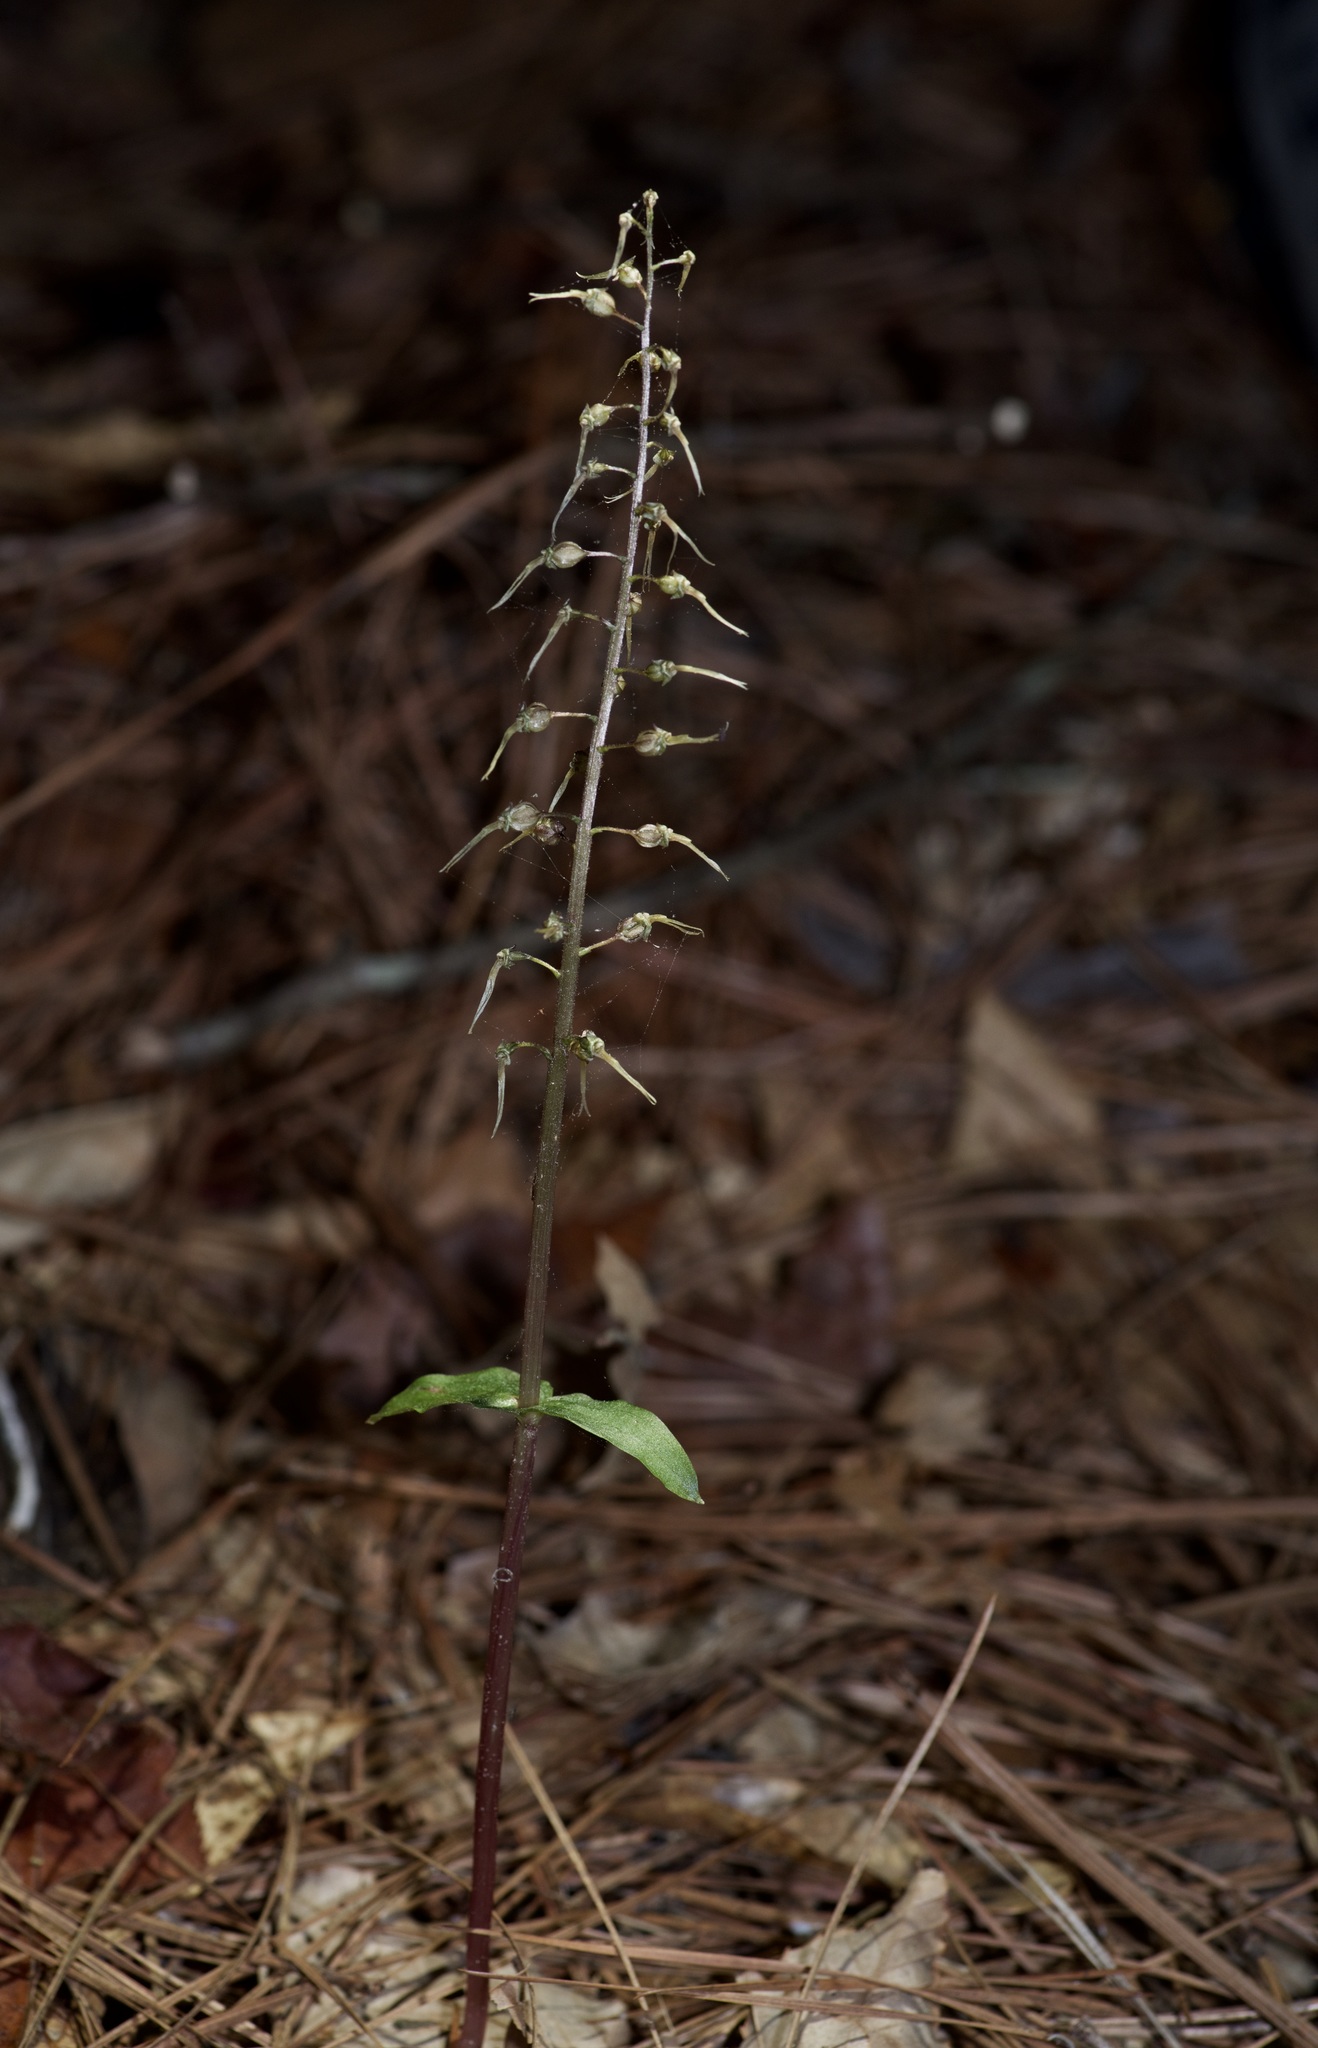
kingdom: Plantae
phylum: Tracheophyta
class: Liliopsida
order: Asparagales
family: Orchidaceae
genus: Neottia
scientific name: Neottia bifolia
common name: Southern twayblade
